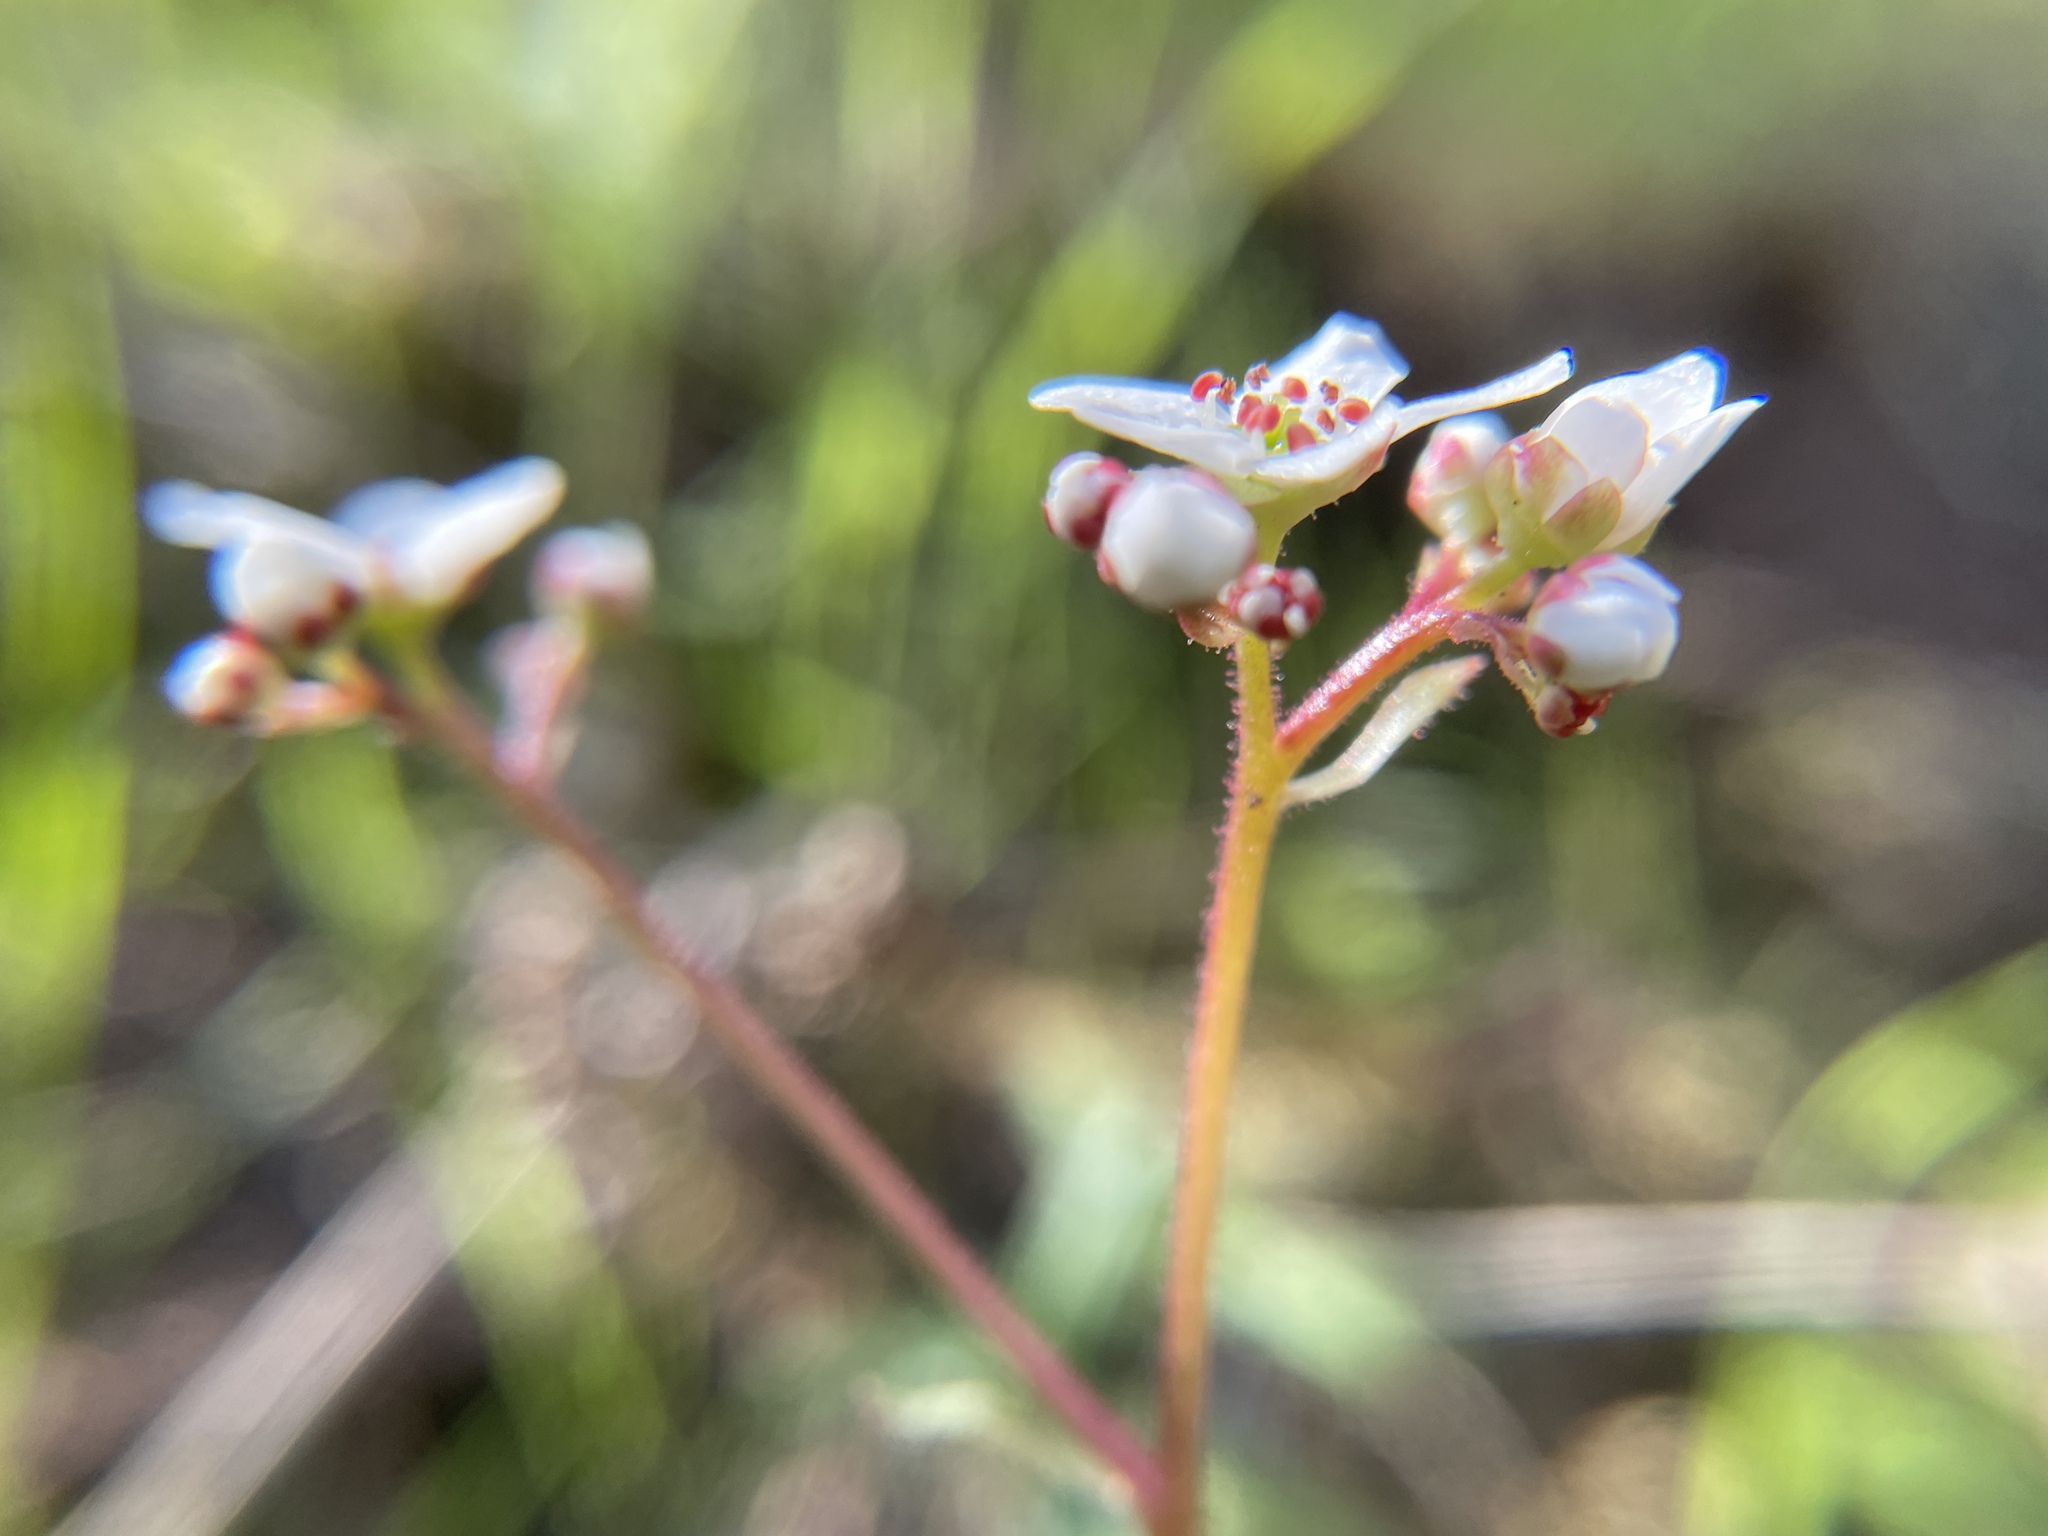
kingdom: Plantae
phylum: Tracheophyta
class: Magnoliopsida
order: Saxifragales
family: Saxifragaceae
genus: Micranthes
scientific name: Micranthes californica
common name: California saxifrage
